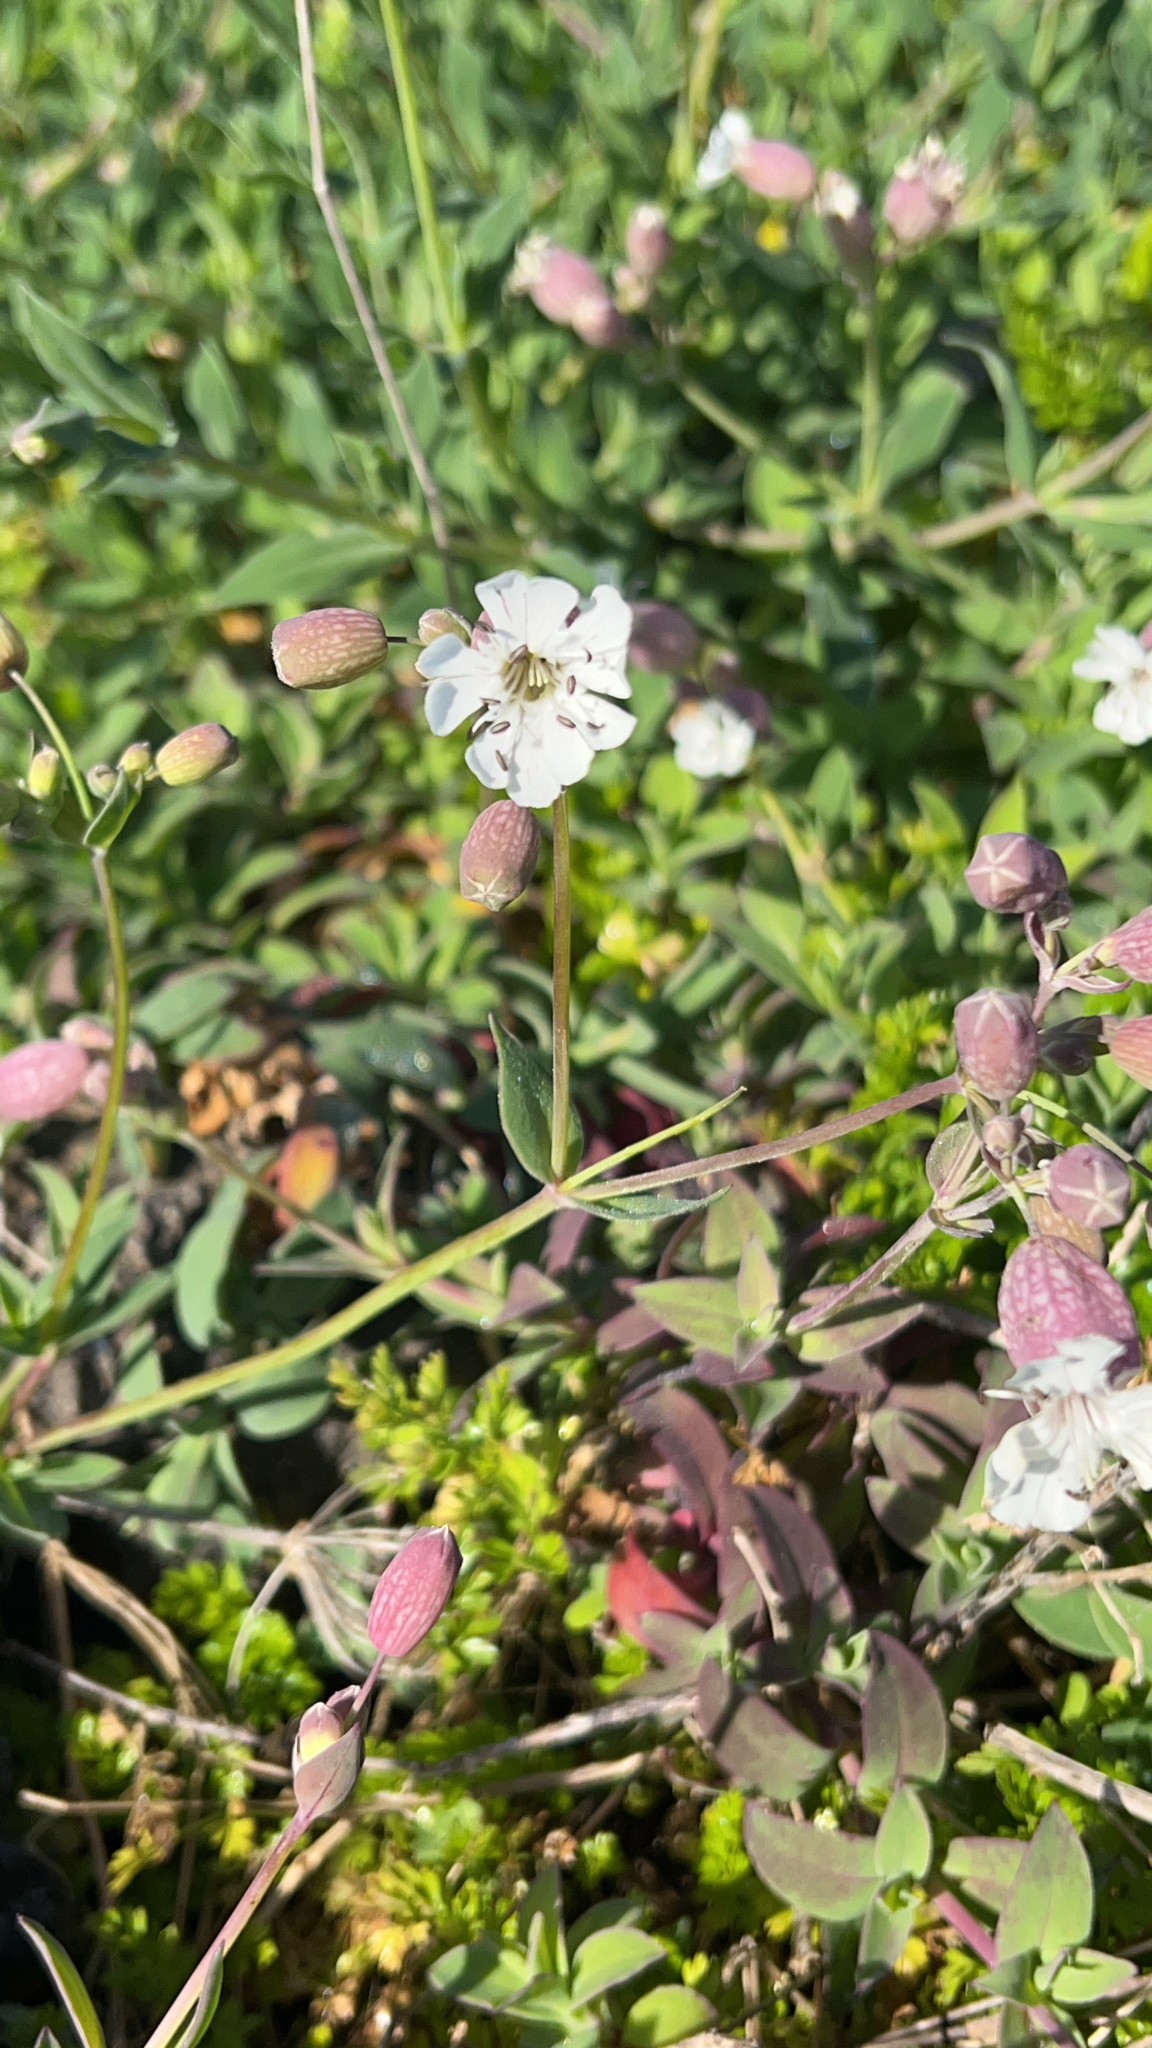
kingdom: Plantae
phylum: Tracheophyta
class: Magnoliopsida
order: Caryophyllales
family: Caryophyllaceae
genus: Silene
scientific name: Silene uniflora
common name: Sea campion
